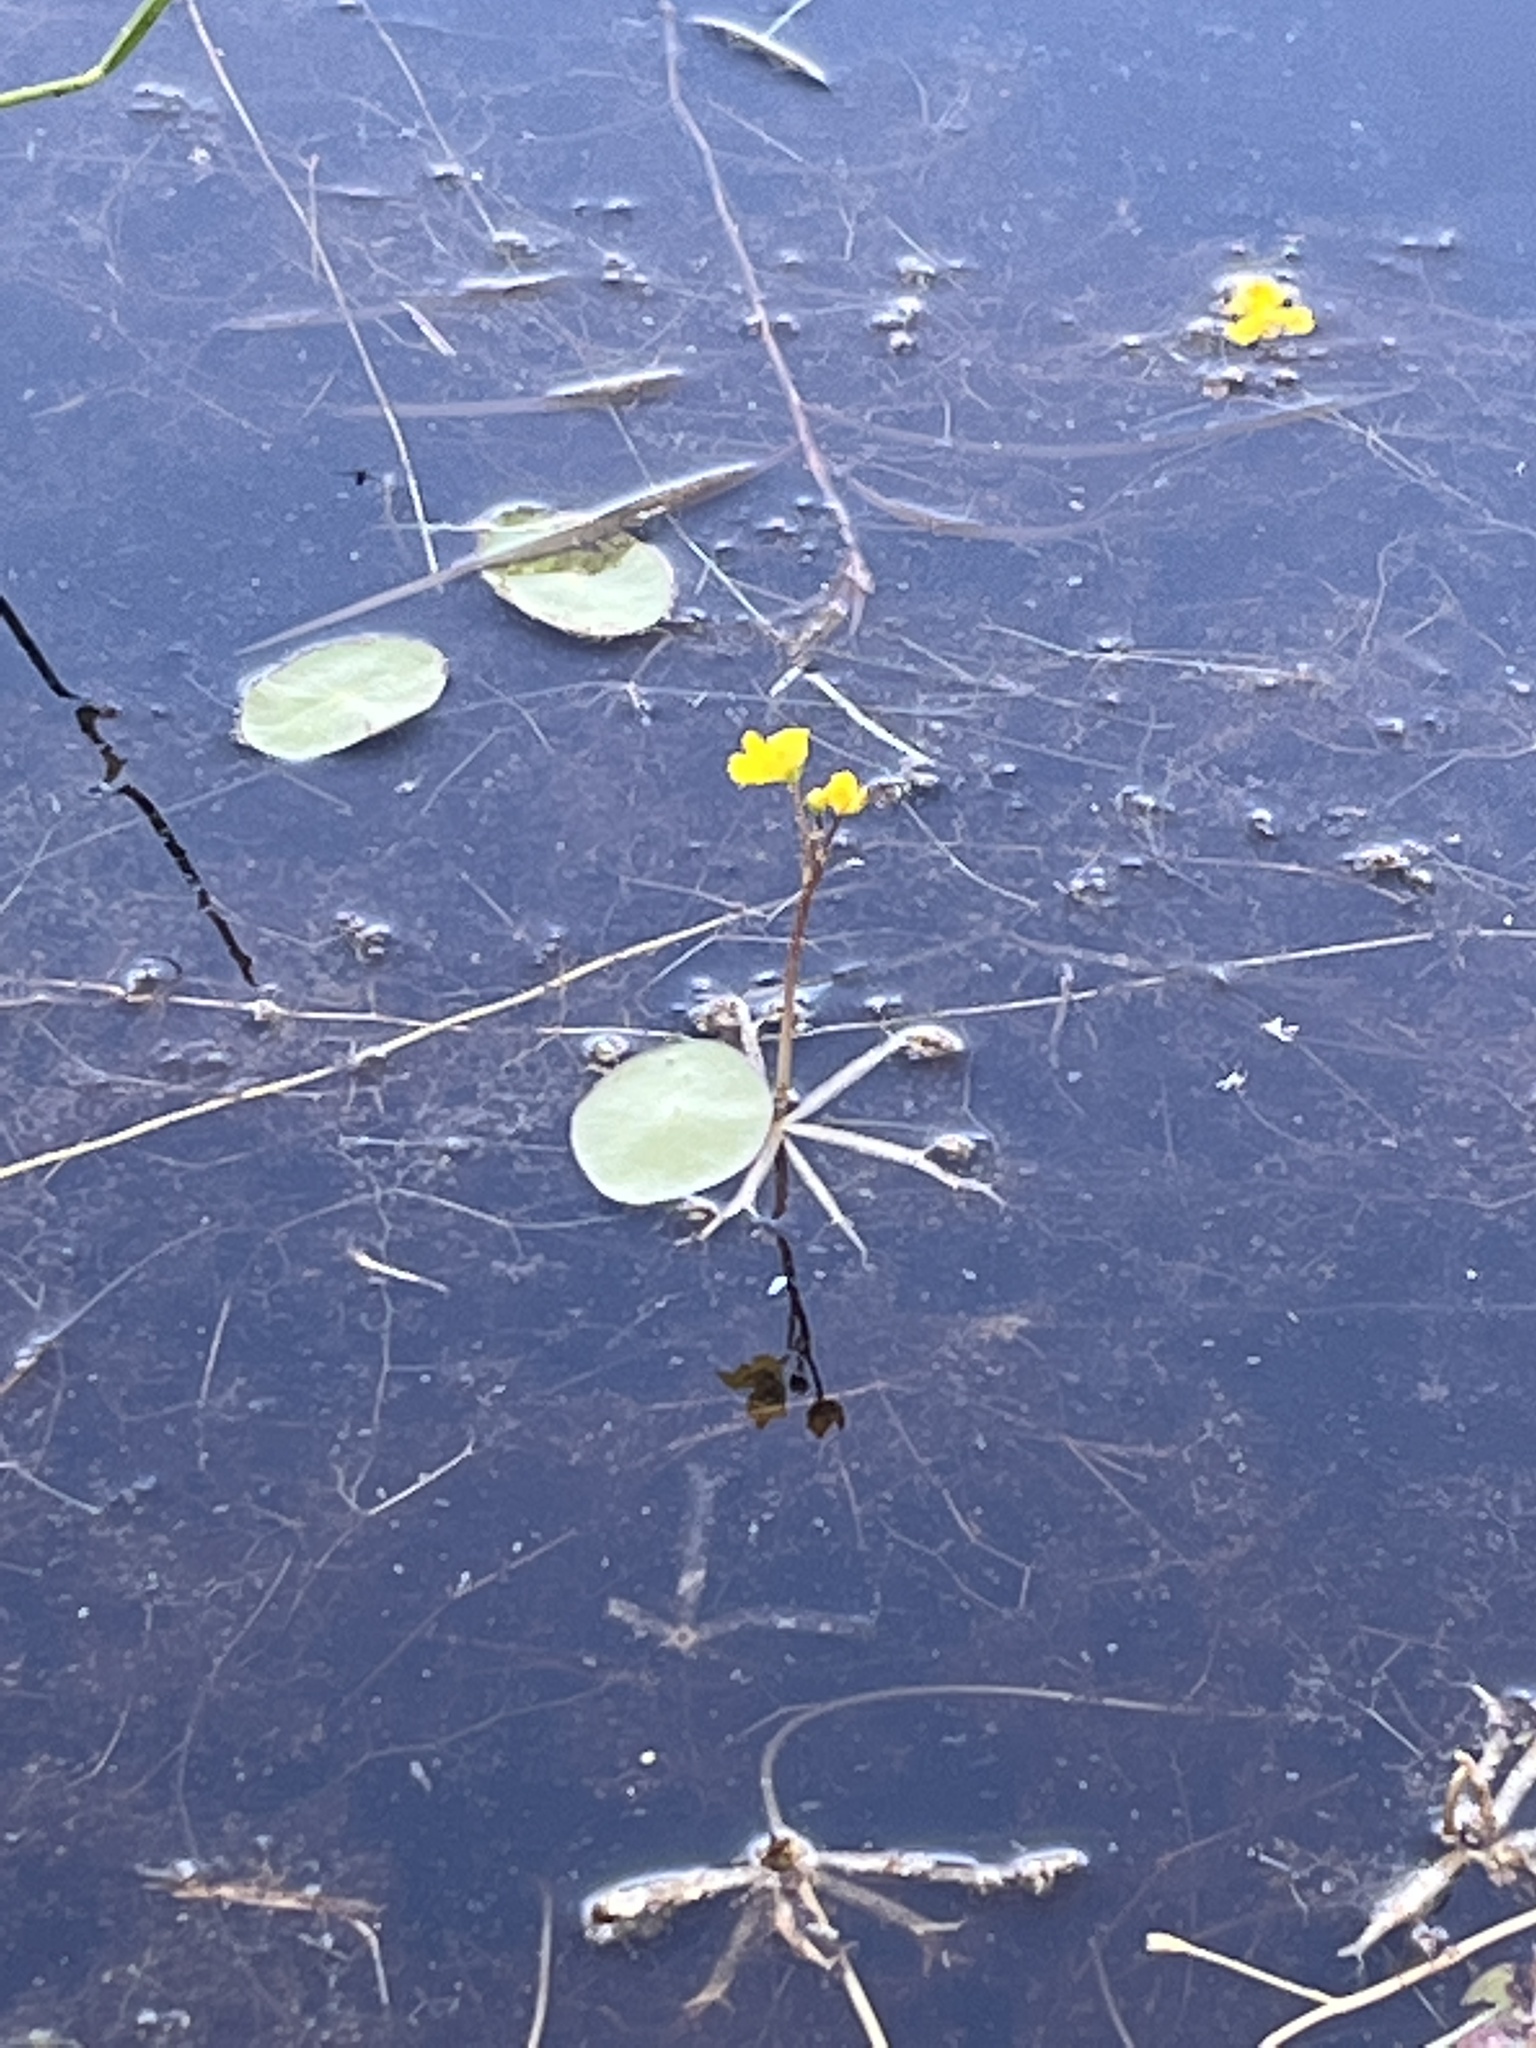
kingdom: Plantae
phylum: Tracheophyta
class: Magnoliopsida
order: Lamiales
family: Lentibulariaceae
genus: Utricularia
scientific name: Utricularia radiata
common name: Floating bladderwort
